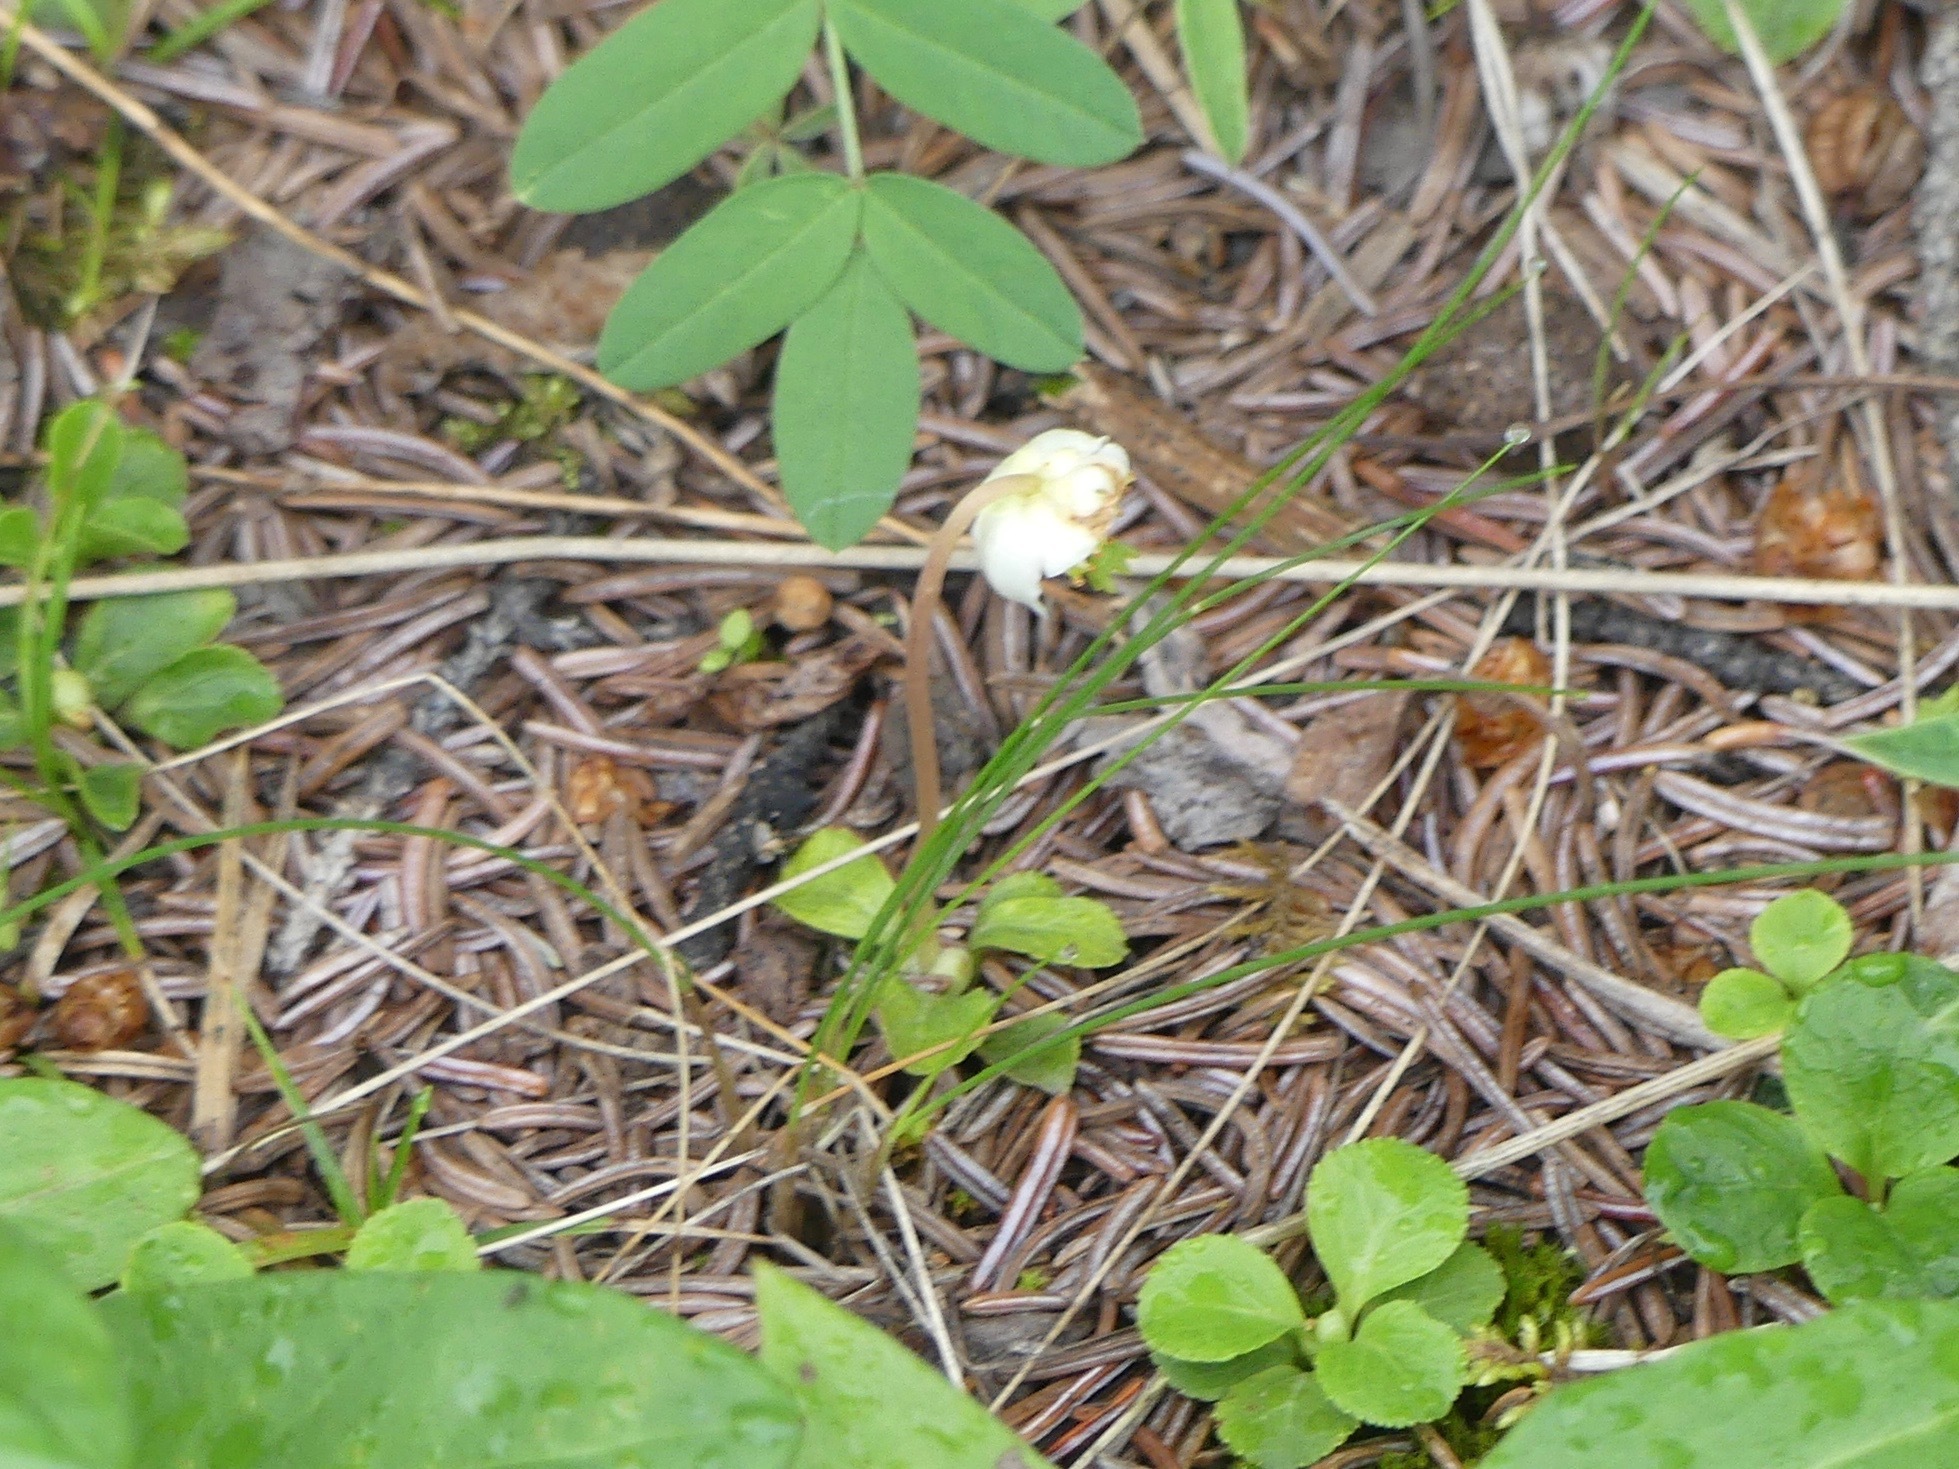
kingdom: Plantae
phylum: Tracheophyta
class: Magnoliopsida
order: Ericales
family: Ericaceae
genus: Moneses
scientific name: Moneses uniflora
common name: One-flowered wintergreen
